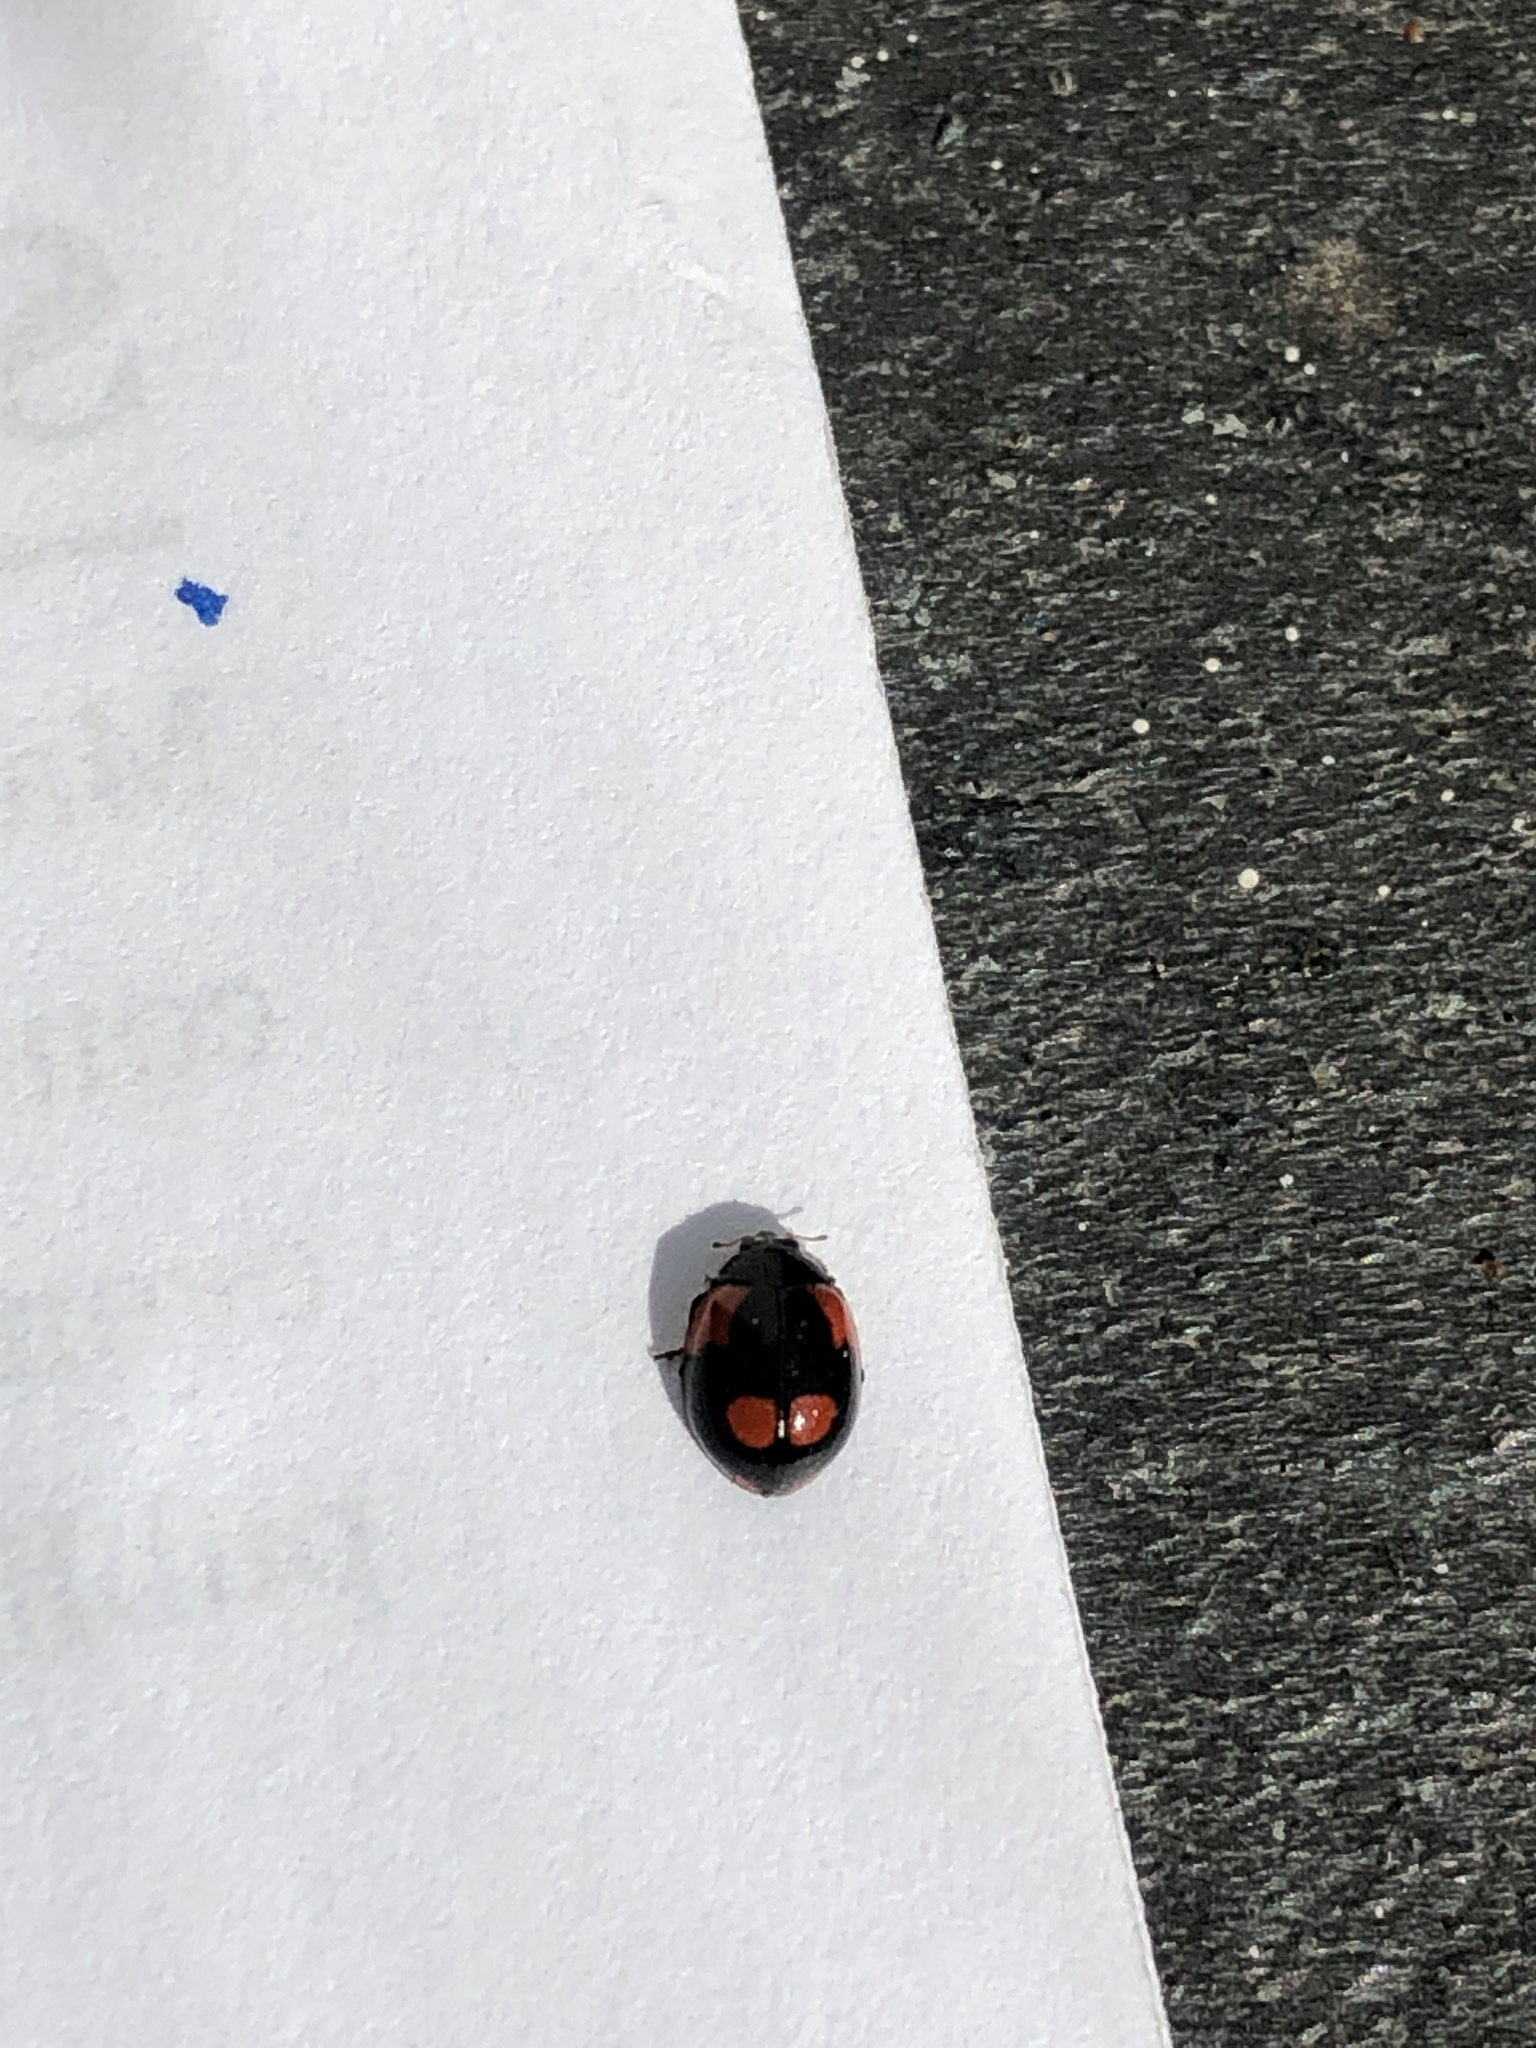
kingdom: Animalia
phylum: Arthropoda
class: Insecta
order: Coleoptera
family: Coccinellidae
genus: Adalia
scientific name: Adalia bipunctata
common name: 2-spot ladybird
